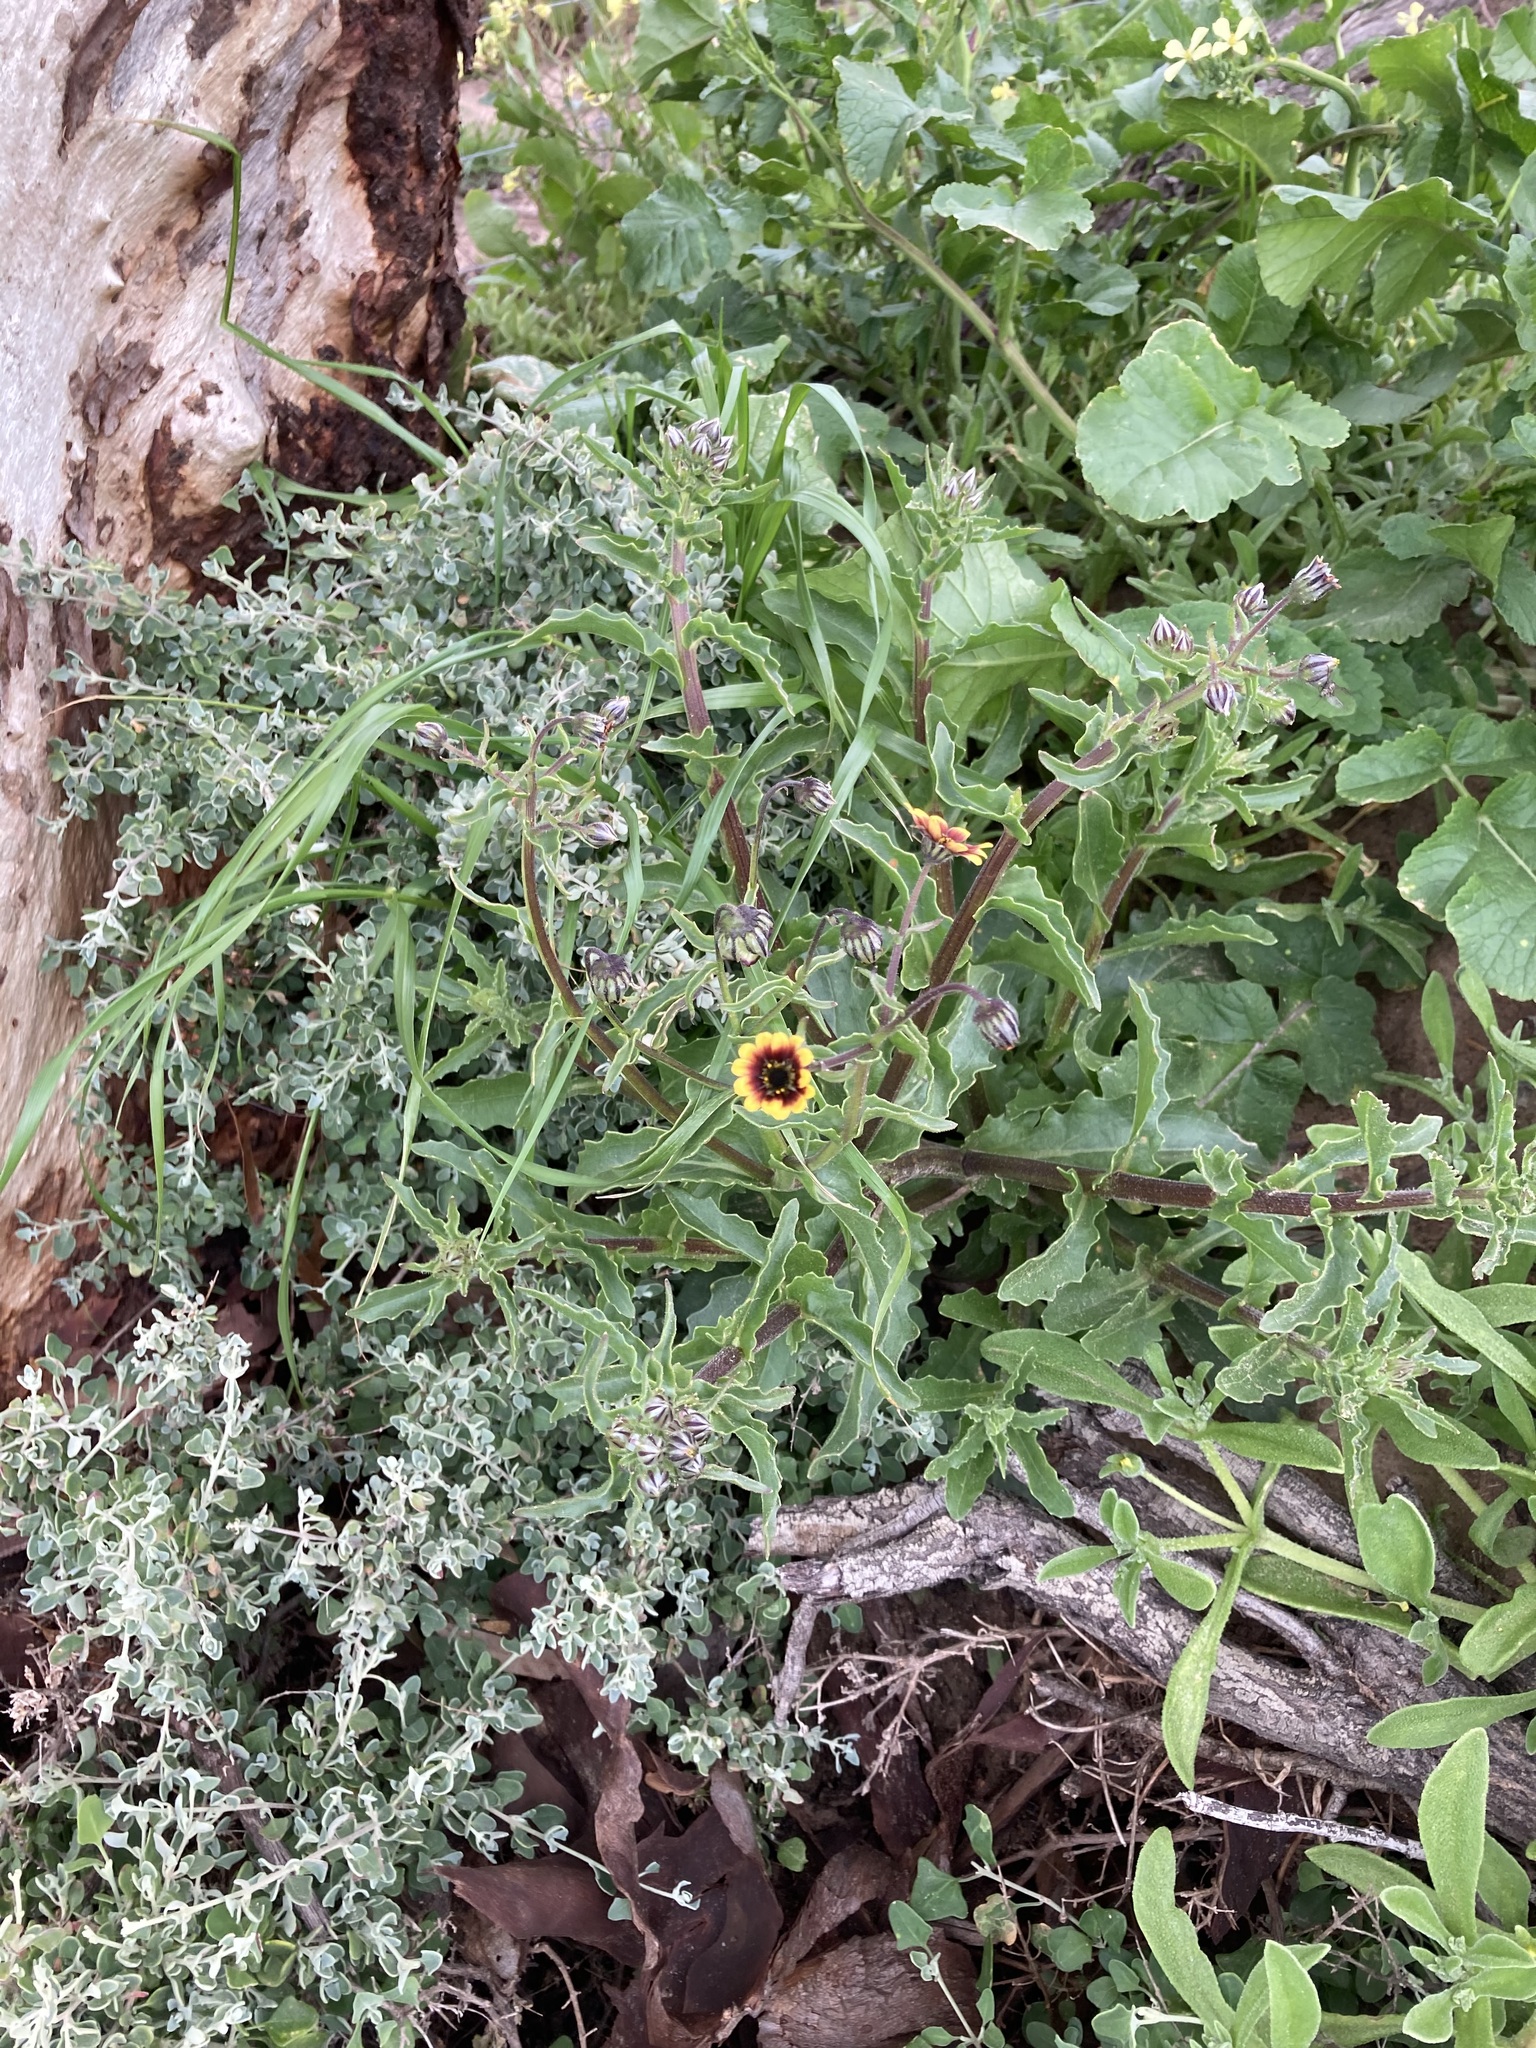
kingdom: Plantae
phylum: Tracheophyta
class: Magnoliopsida
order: Asterales
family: Asteraceae
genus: Osteospermum
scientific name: Osteospermum monstrosum
